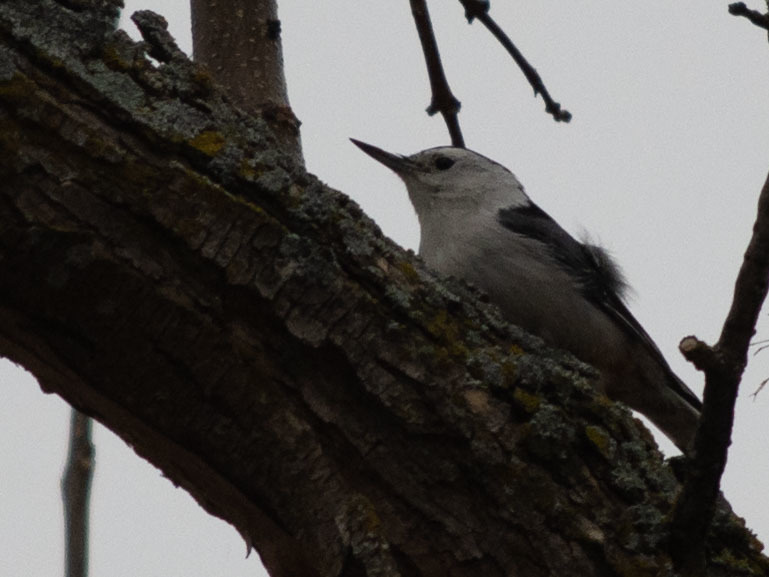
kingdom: Animalia
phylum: Chordata
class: Aves
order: Passeriformes
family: Sittidae
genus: Sitta
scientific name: Sitta carolinensis
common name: White-breasted nuthatch
